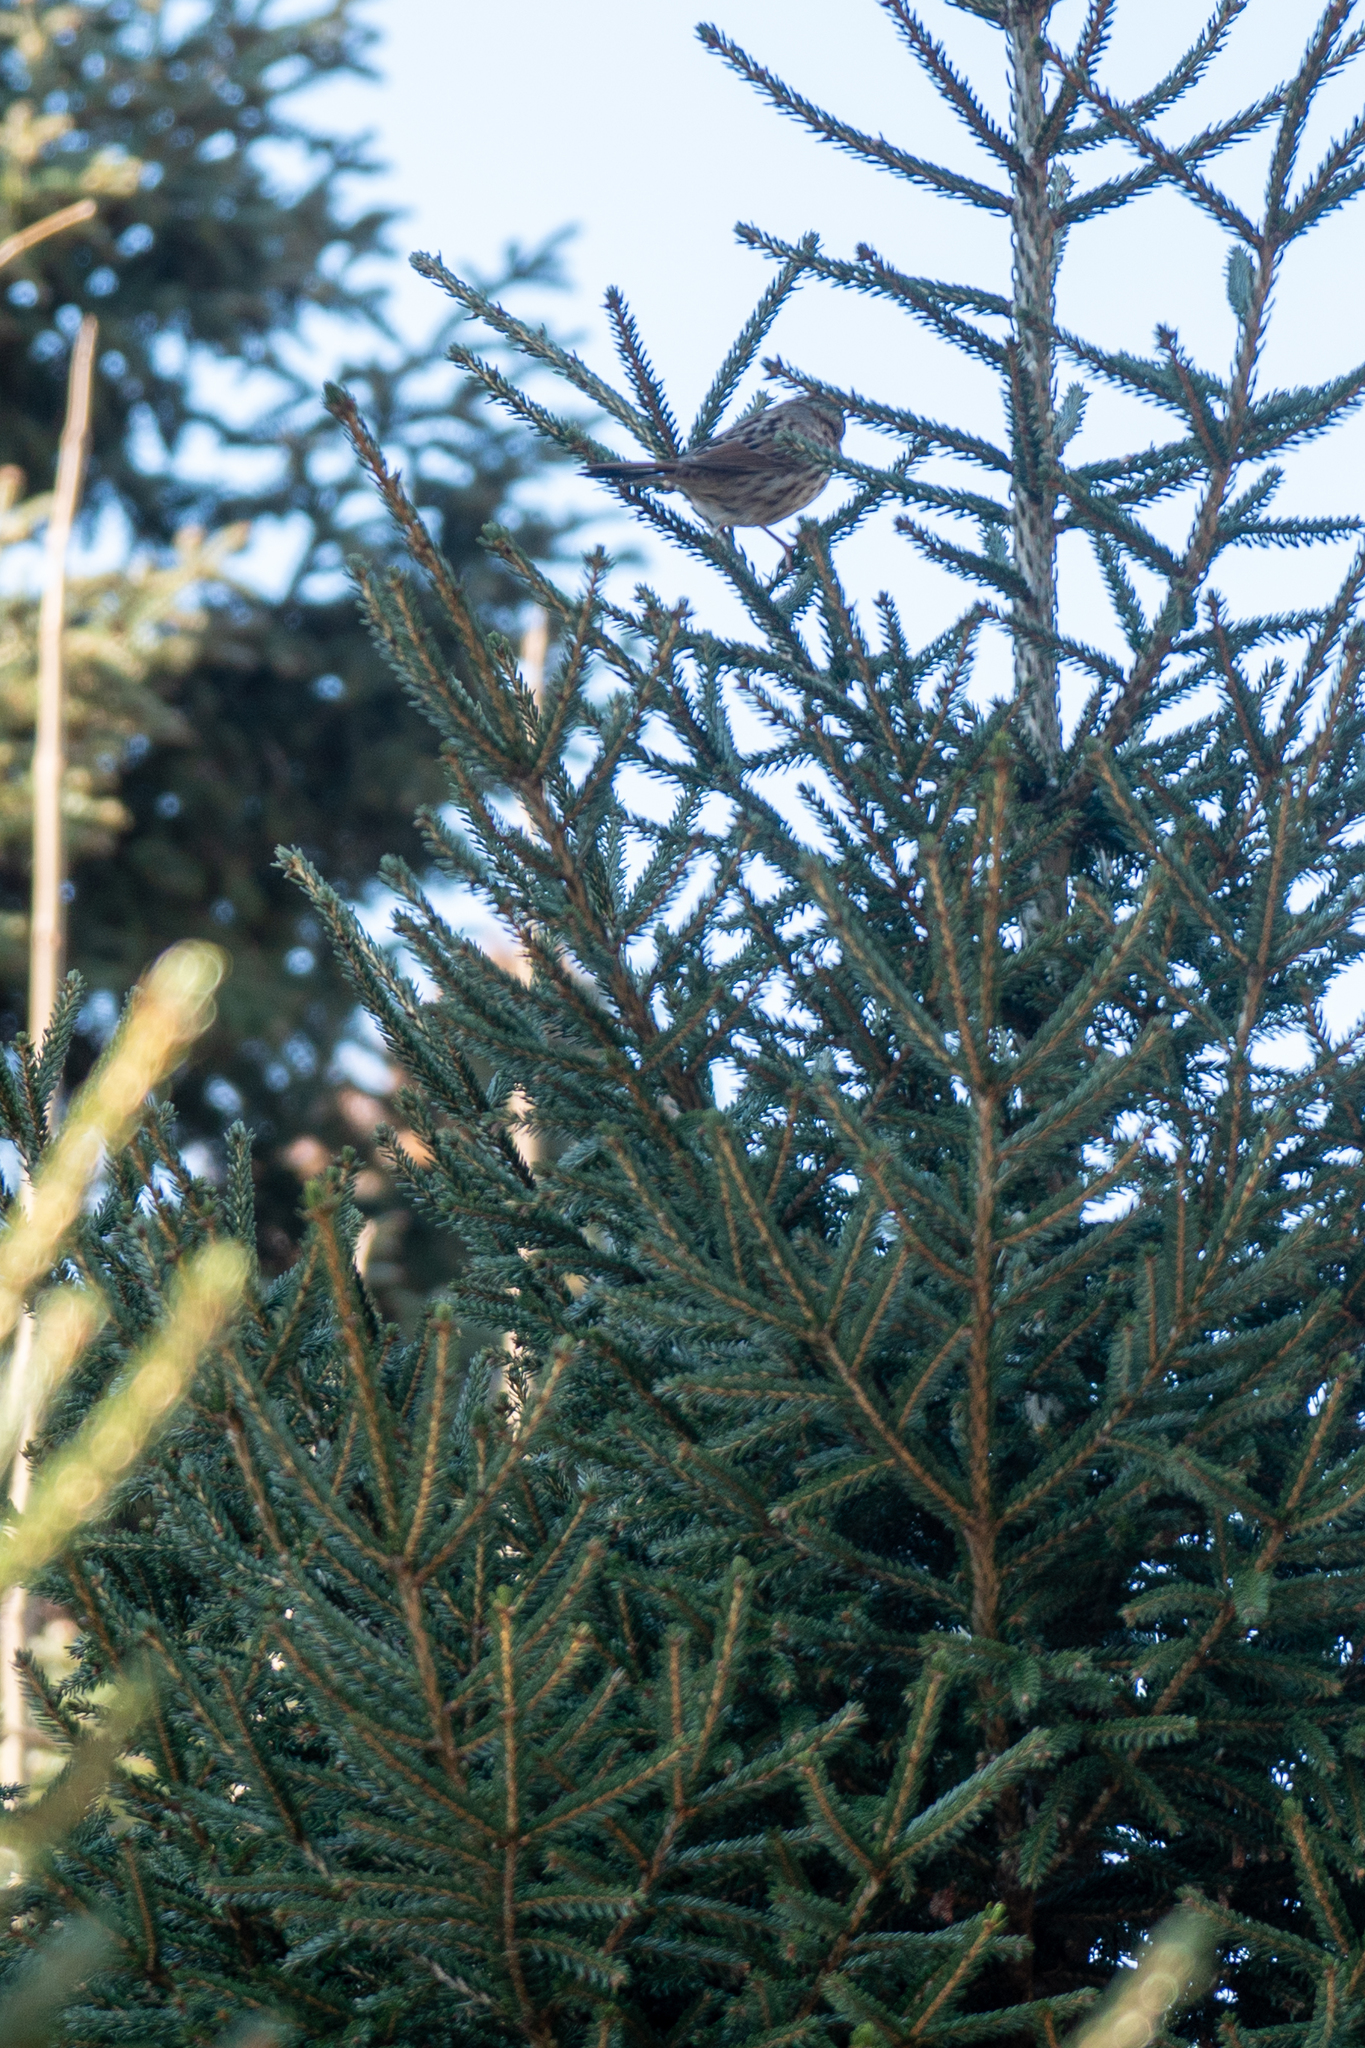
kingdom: Animalia
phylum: Chordata
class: Aves
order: Passeriformes
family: Passerellidae
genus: Melospiza
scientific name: Melospiza melodia
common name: Song sparrow
